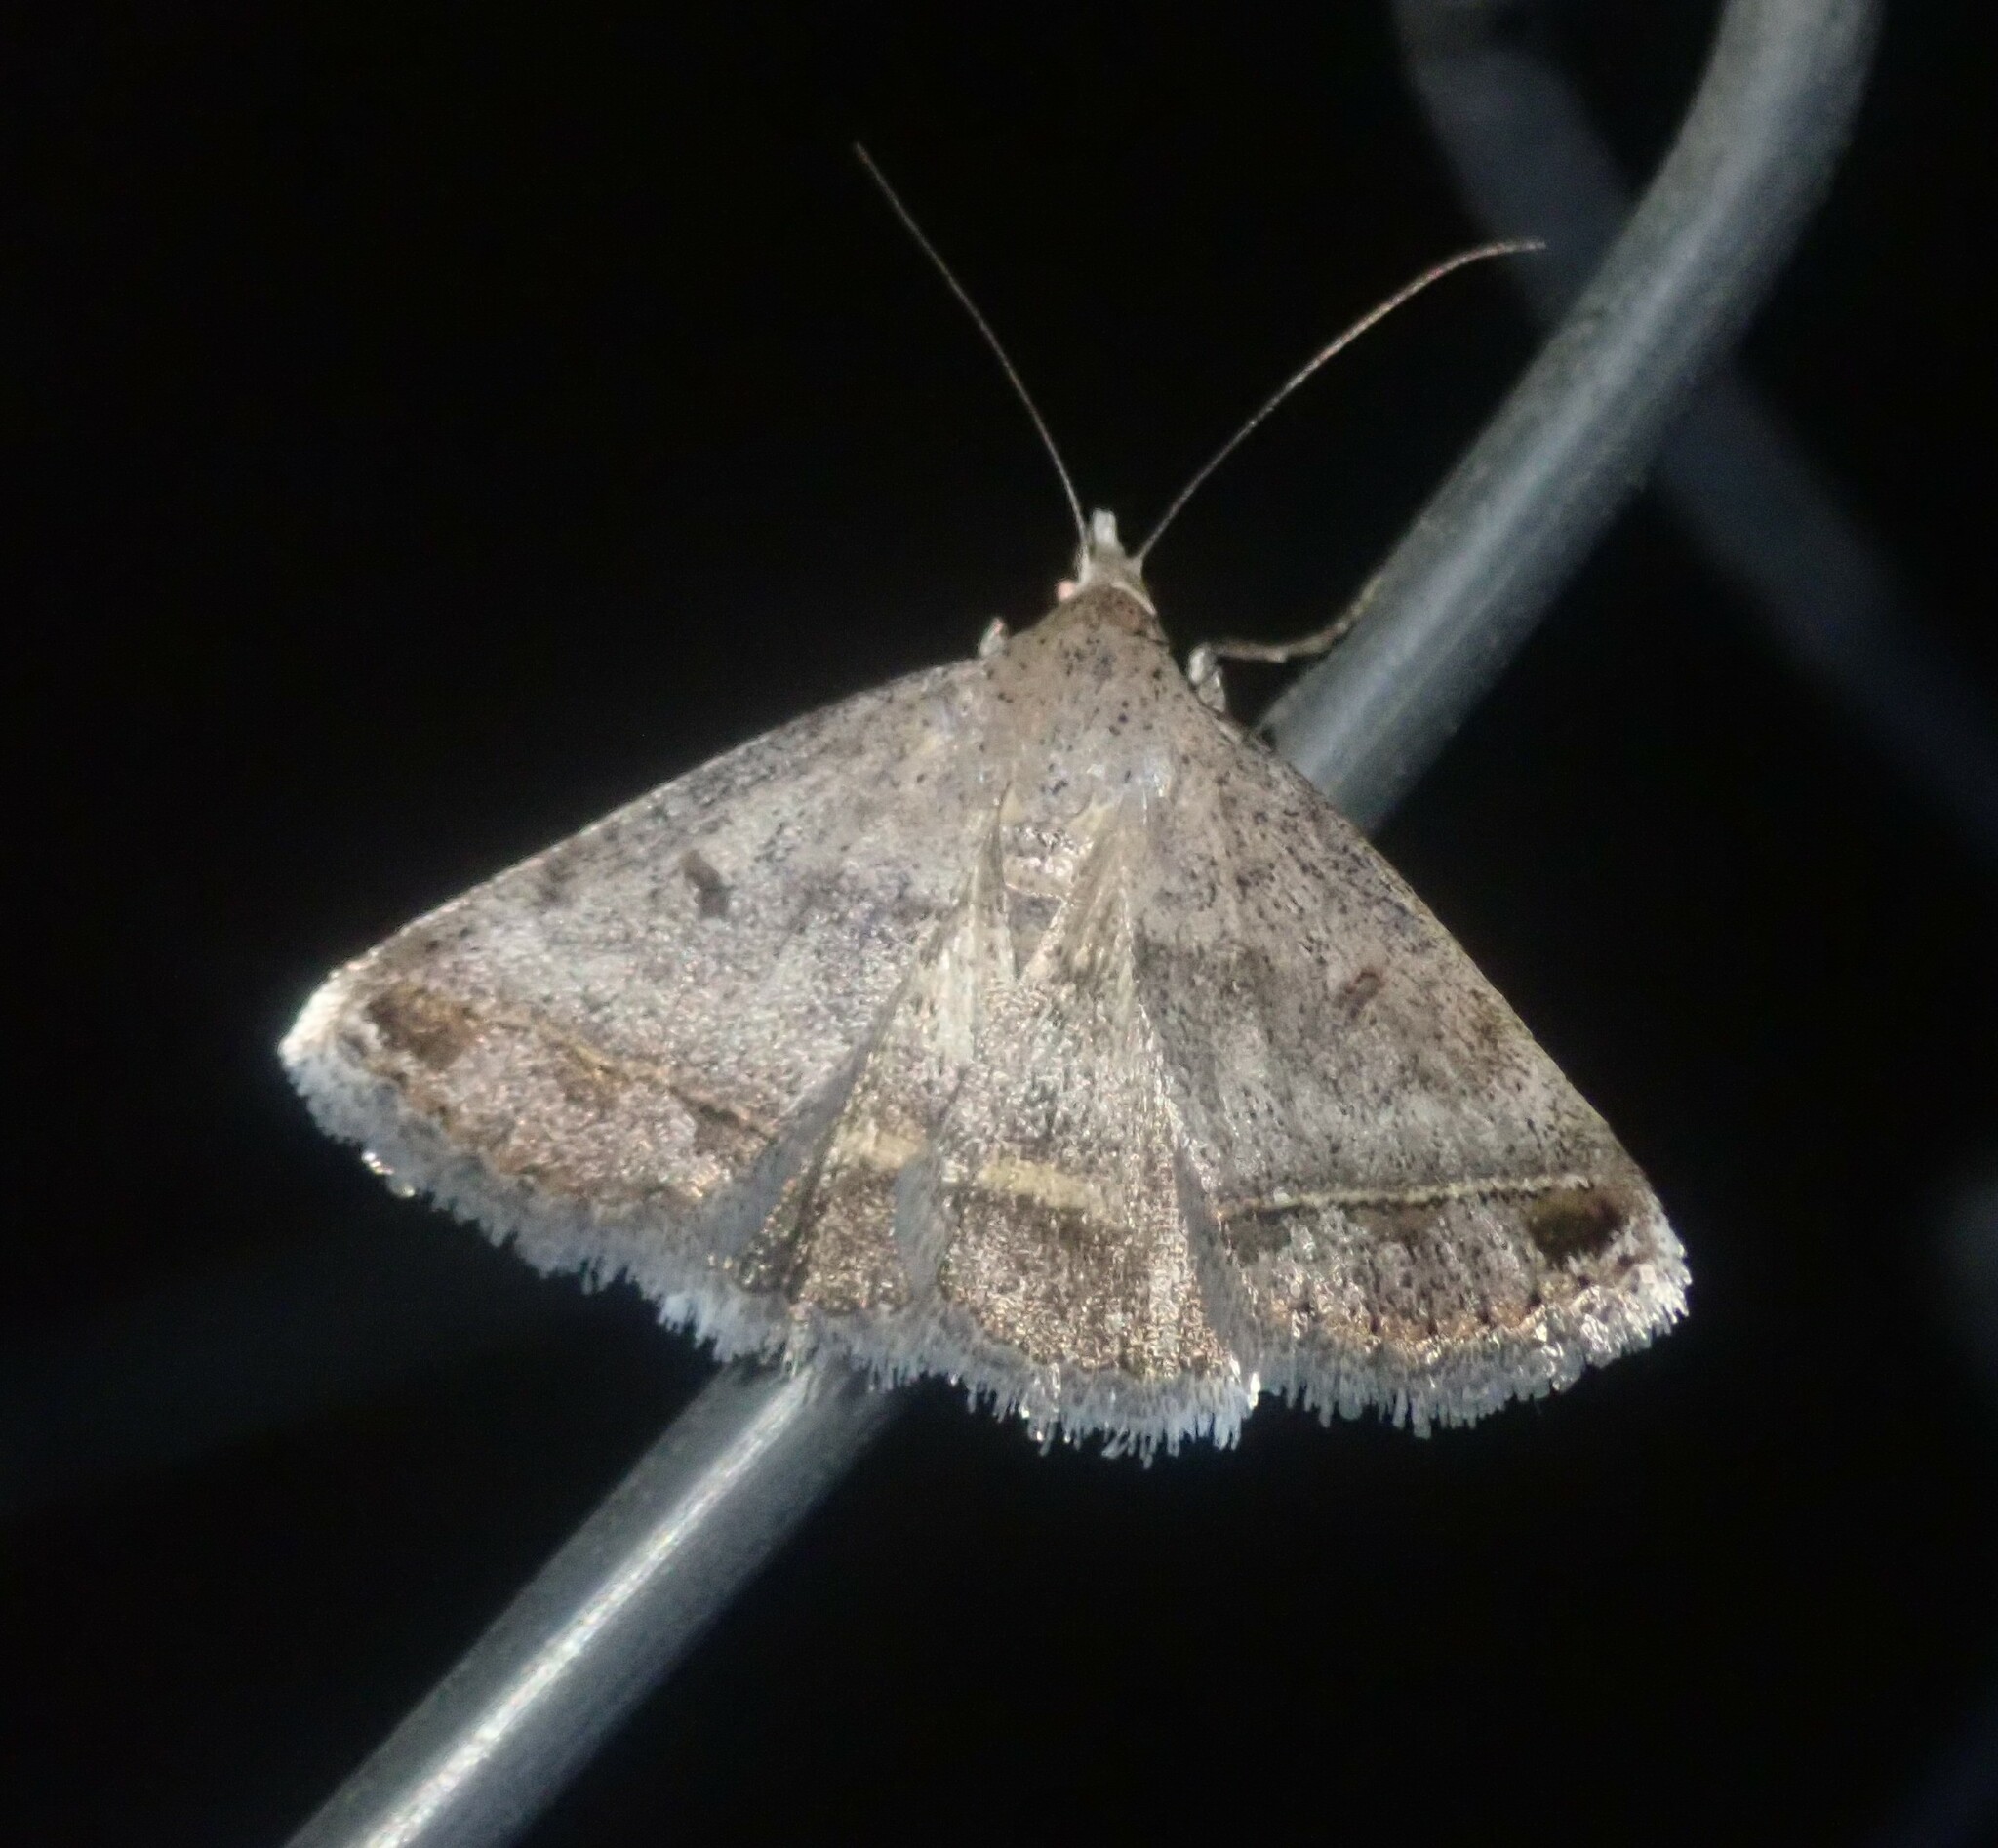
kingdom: Animalia
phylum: Arthropoda
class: Insecta
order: Lepidoptera
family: Erebidae
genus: Acantholipes
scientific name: Acantholipes trimeni
